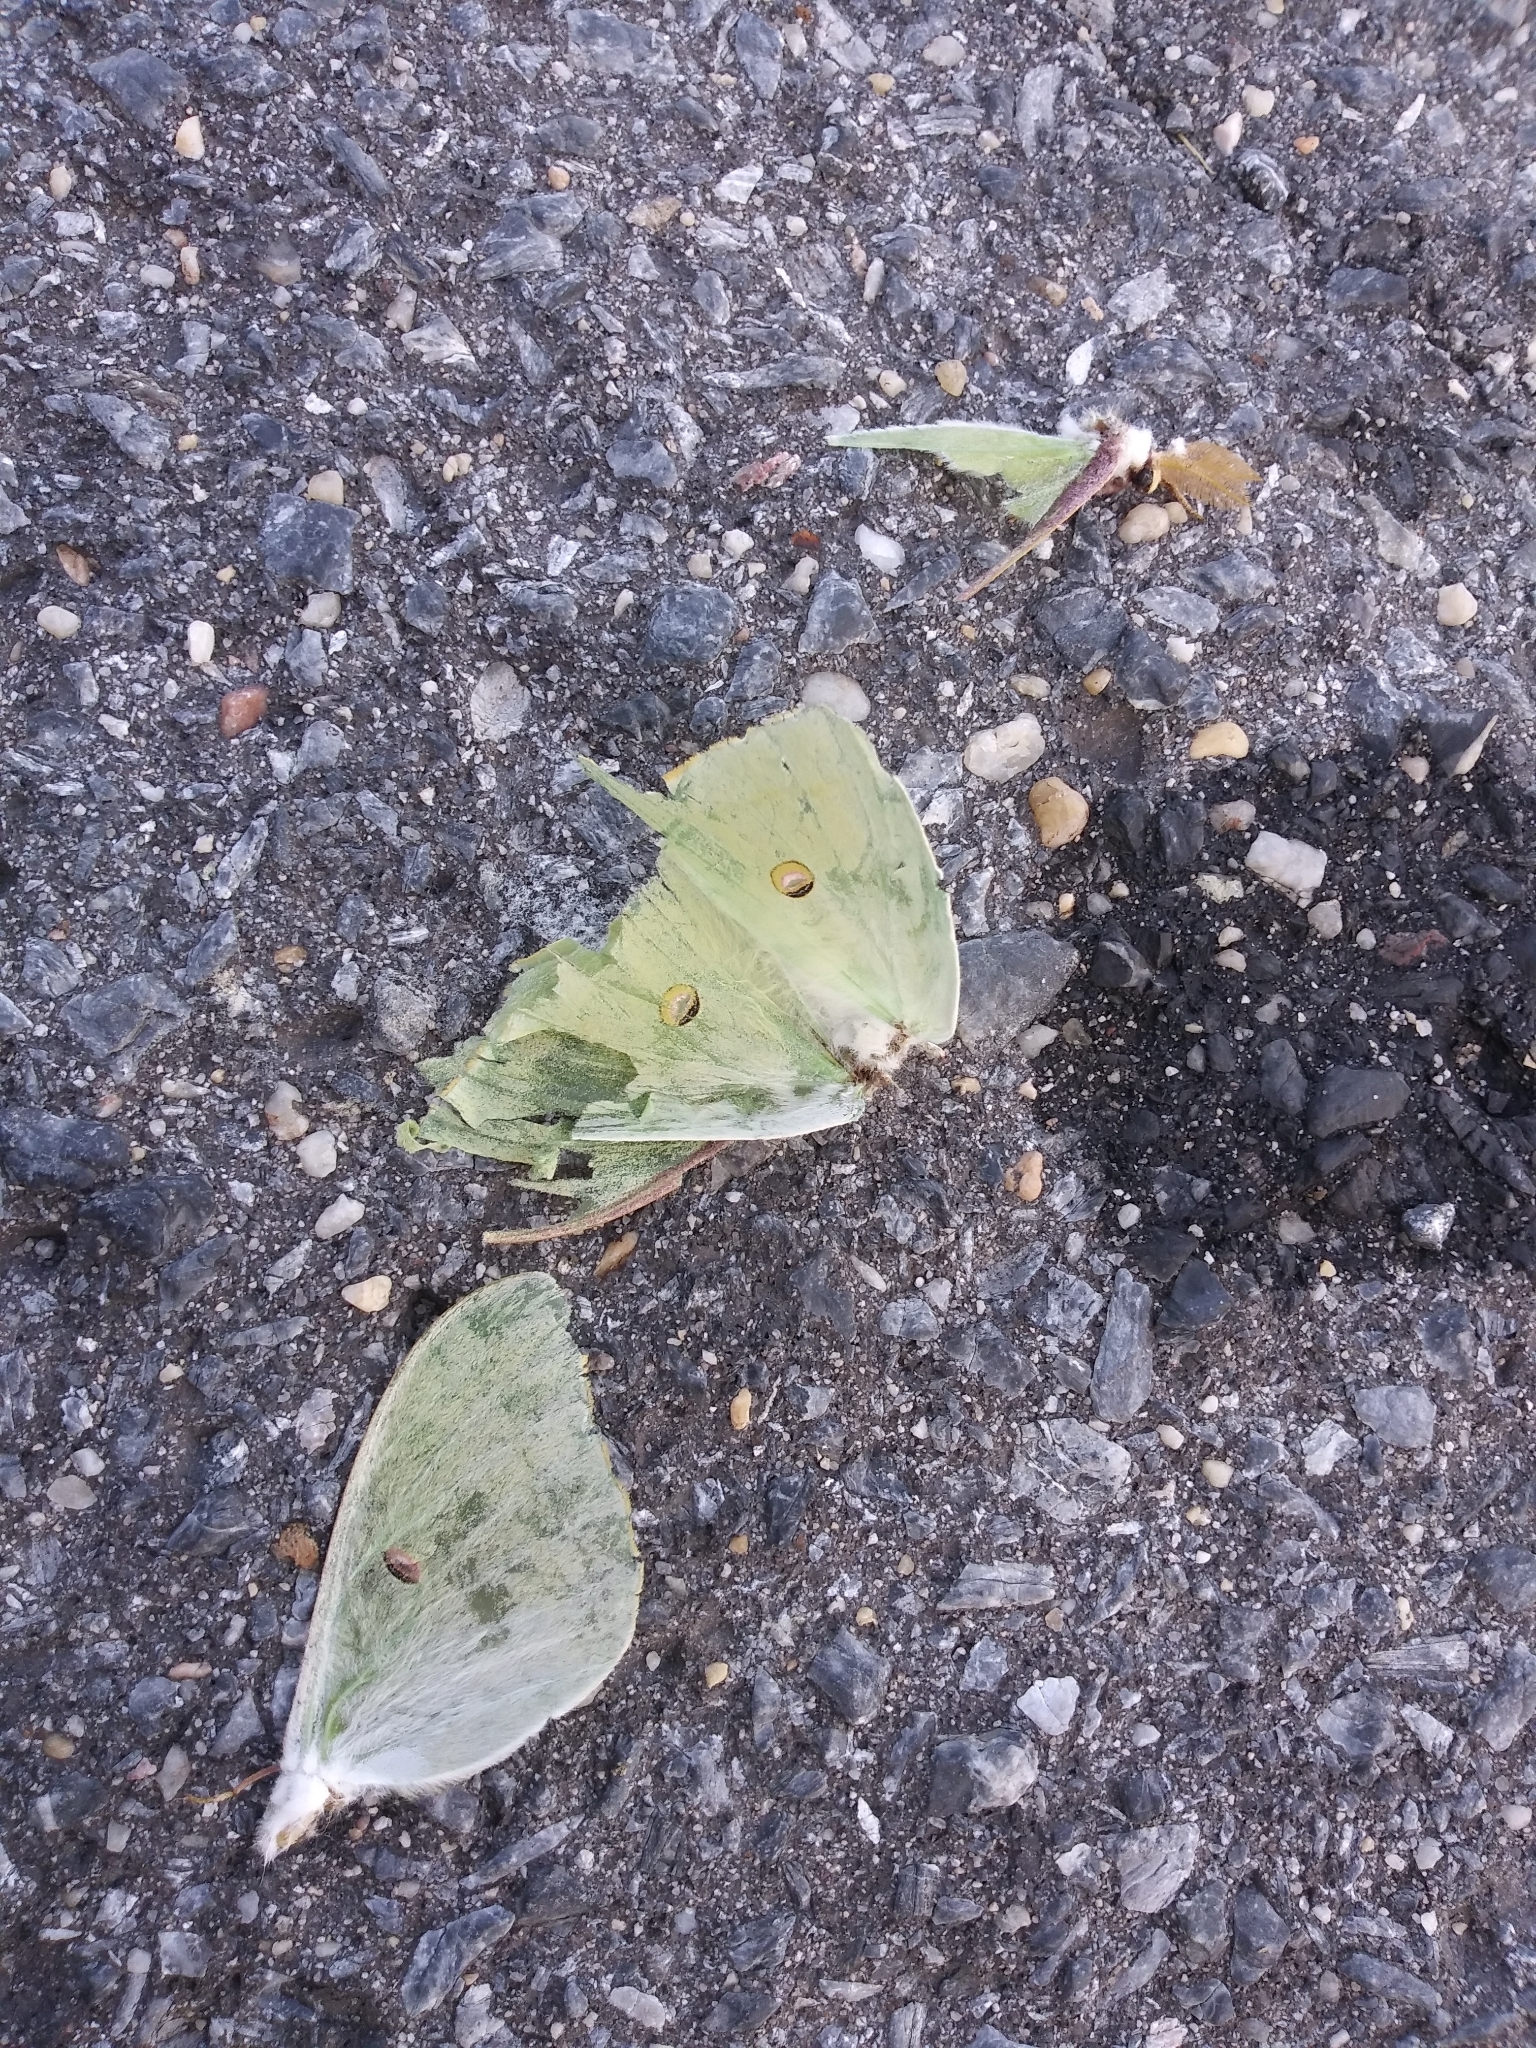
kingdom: Animalia
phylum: Arthropoda
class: Insecta
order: Lepidoptera
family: Saturniidae
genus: Actias
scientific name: Actias luna
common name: Luna moth
